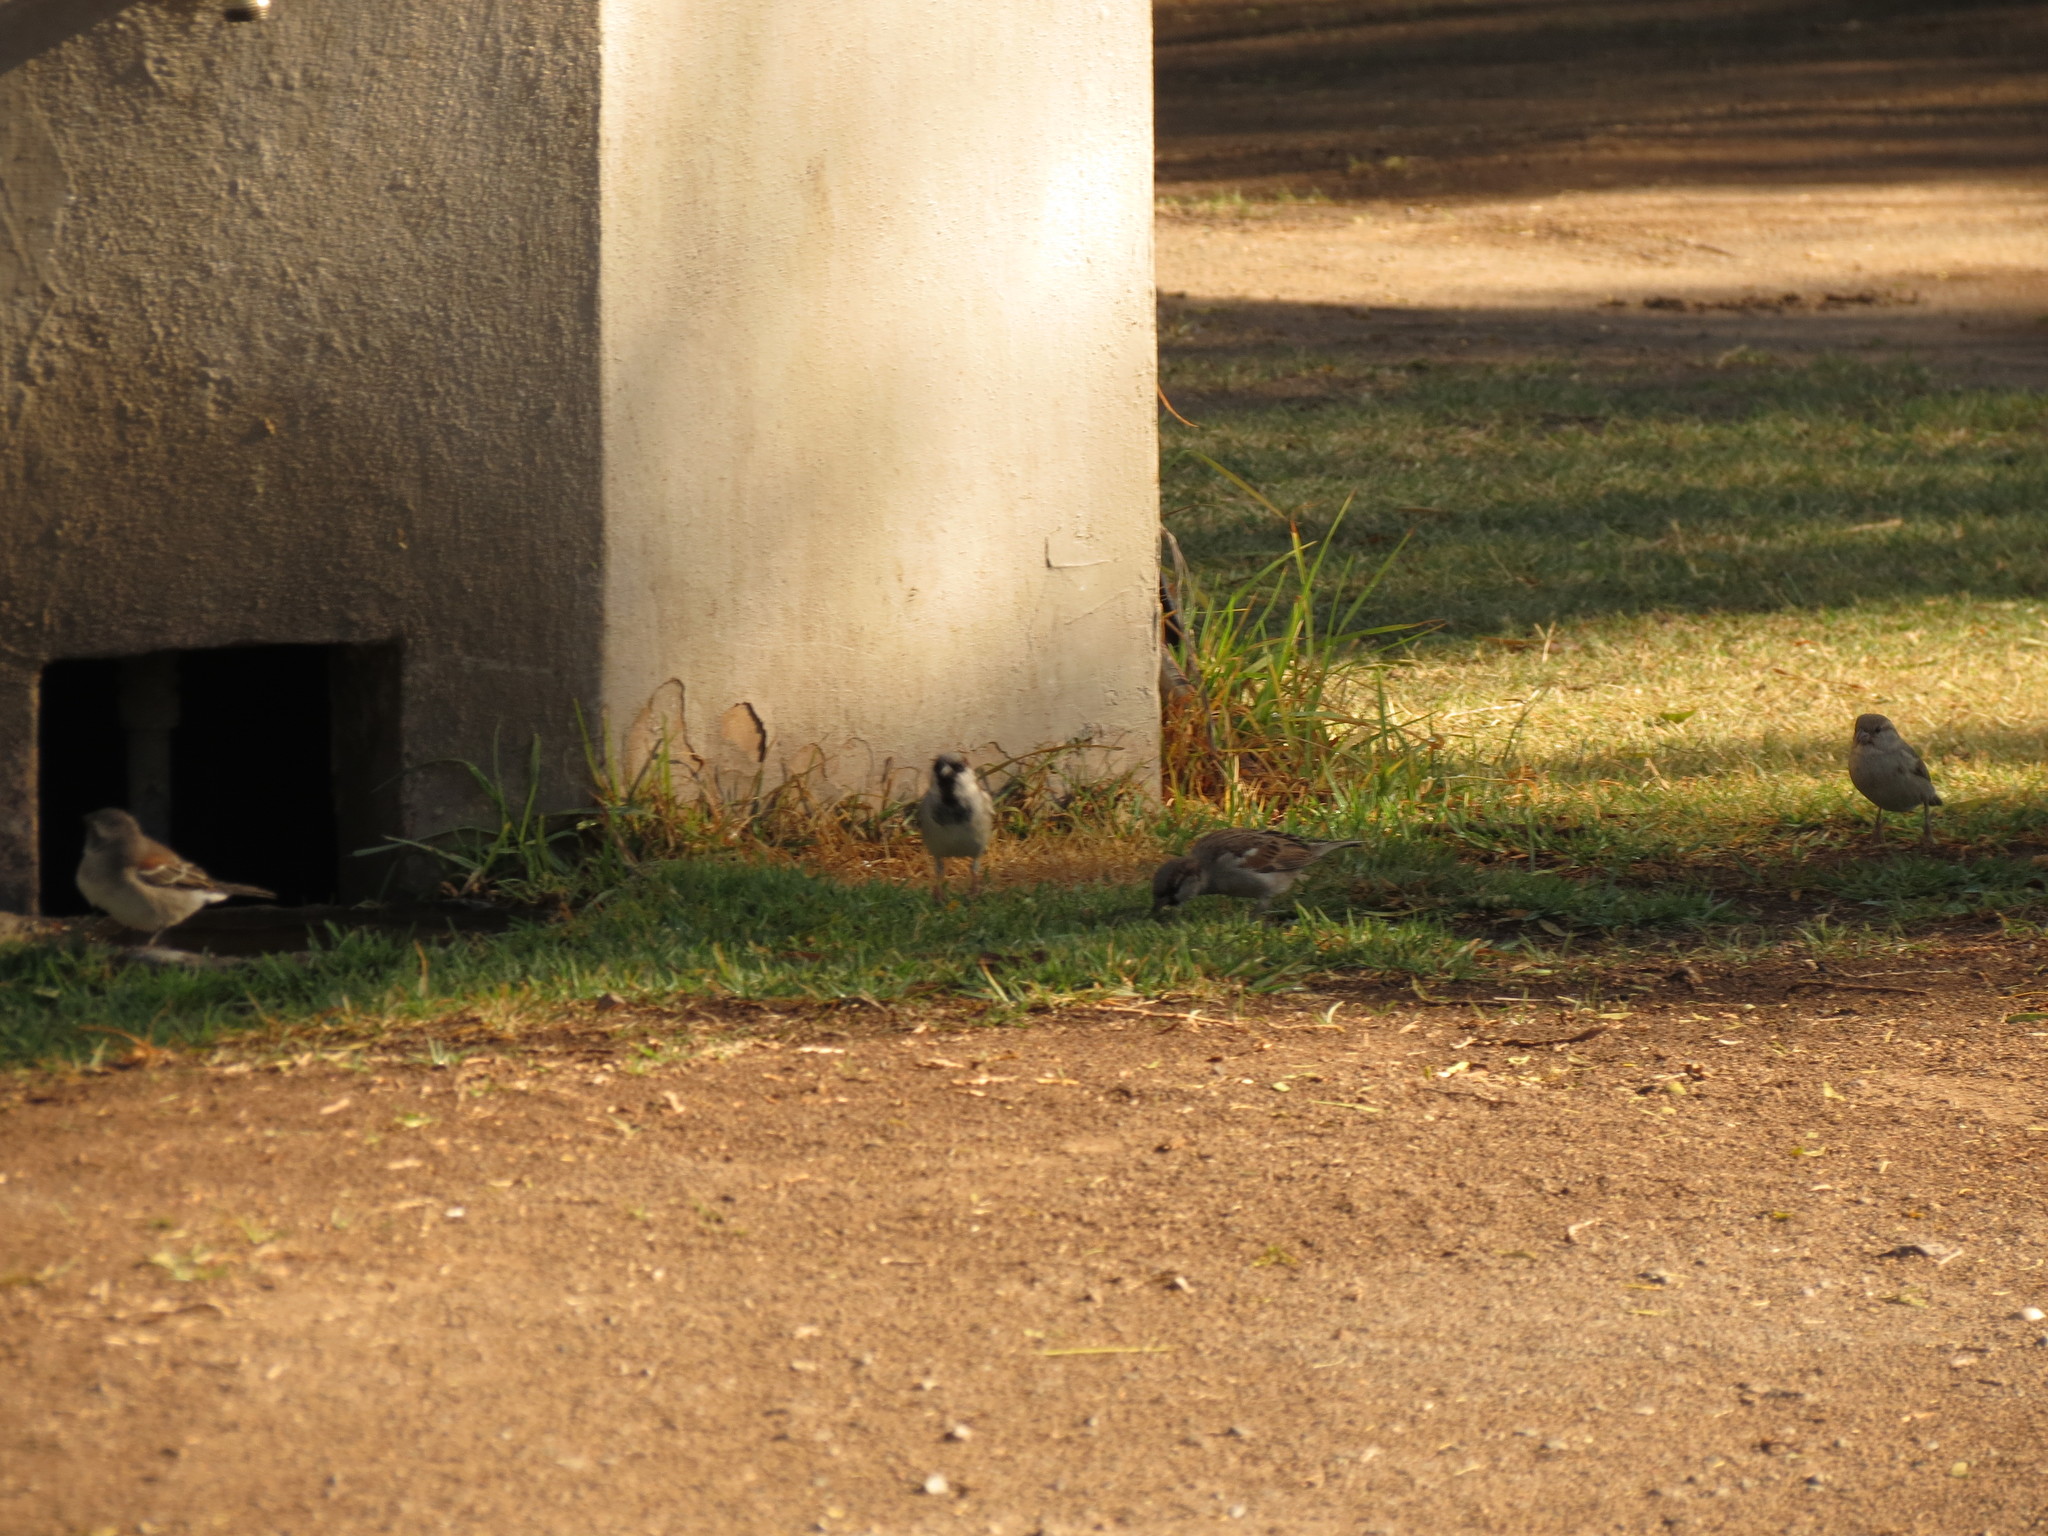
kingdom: Animalia
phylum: Chordata
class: Aves
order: Passeriformes
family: Passeridae
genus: Passer
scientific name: Passer domesticus
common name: House sparrow
